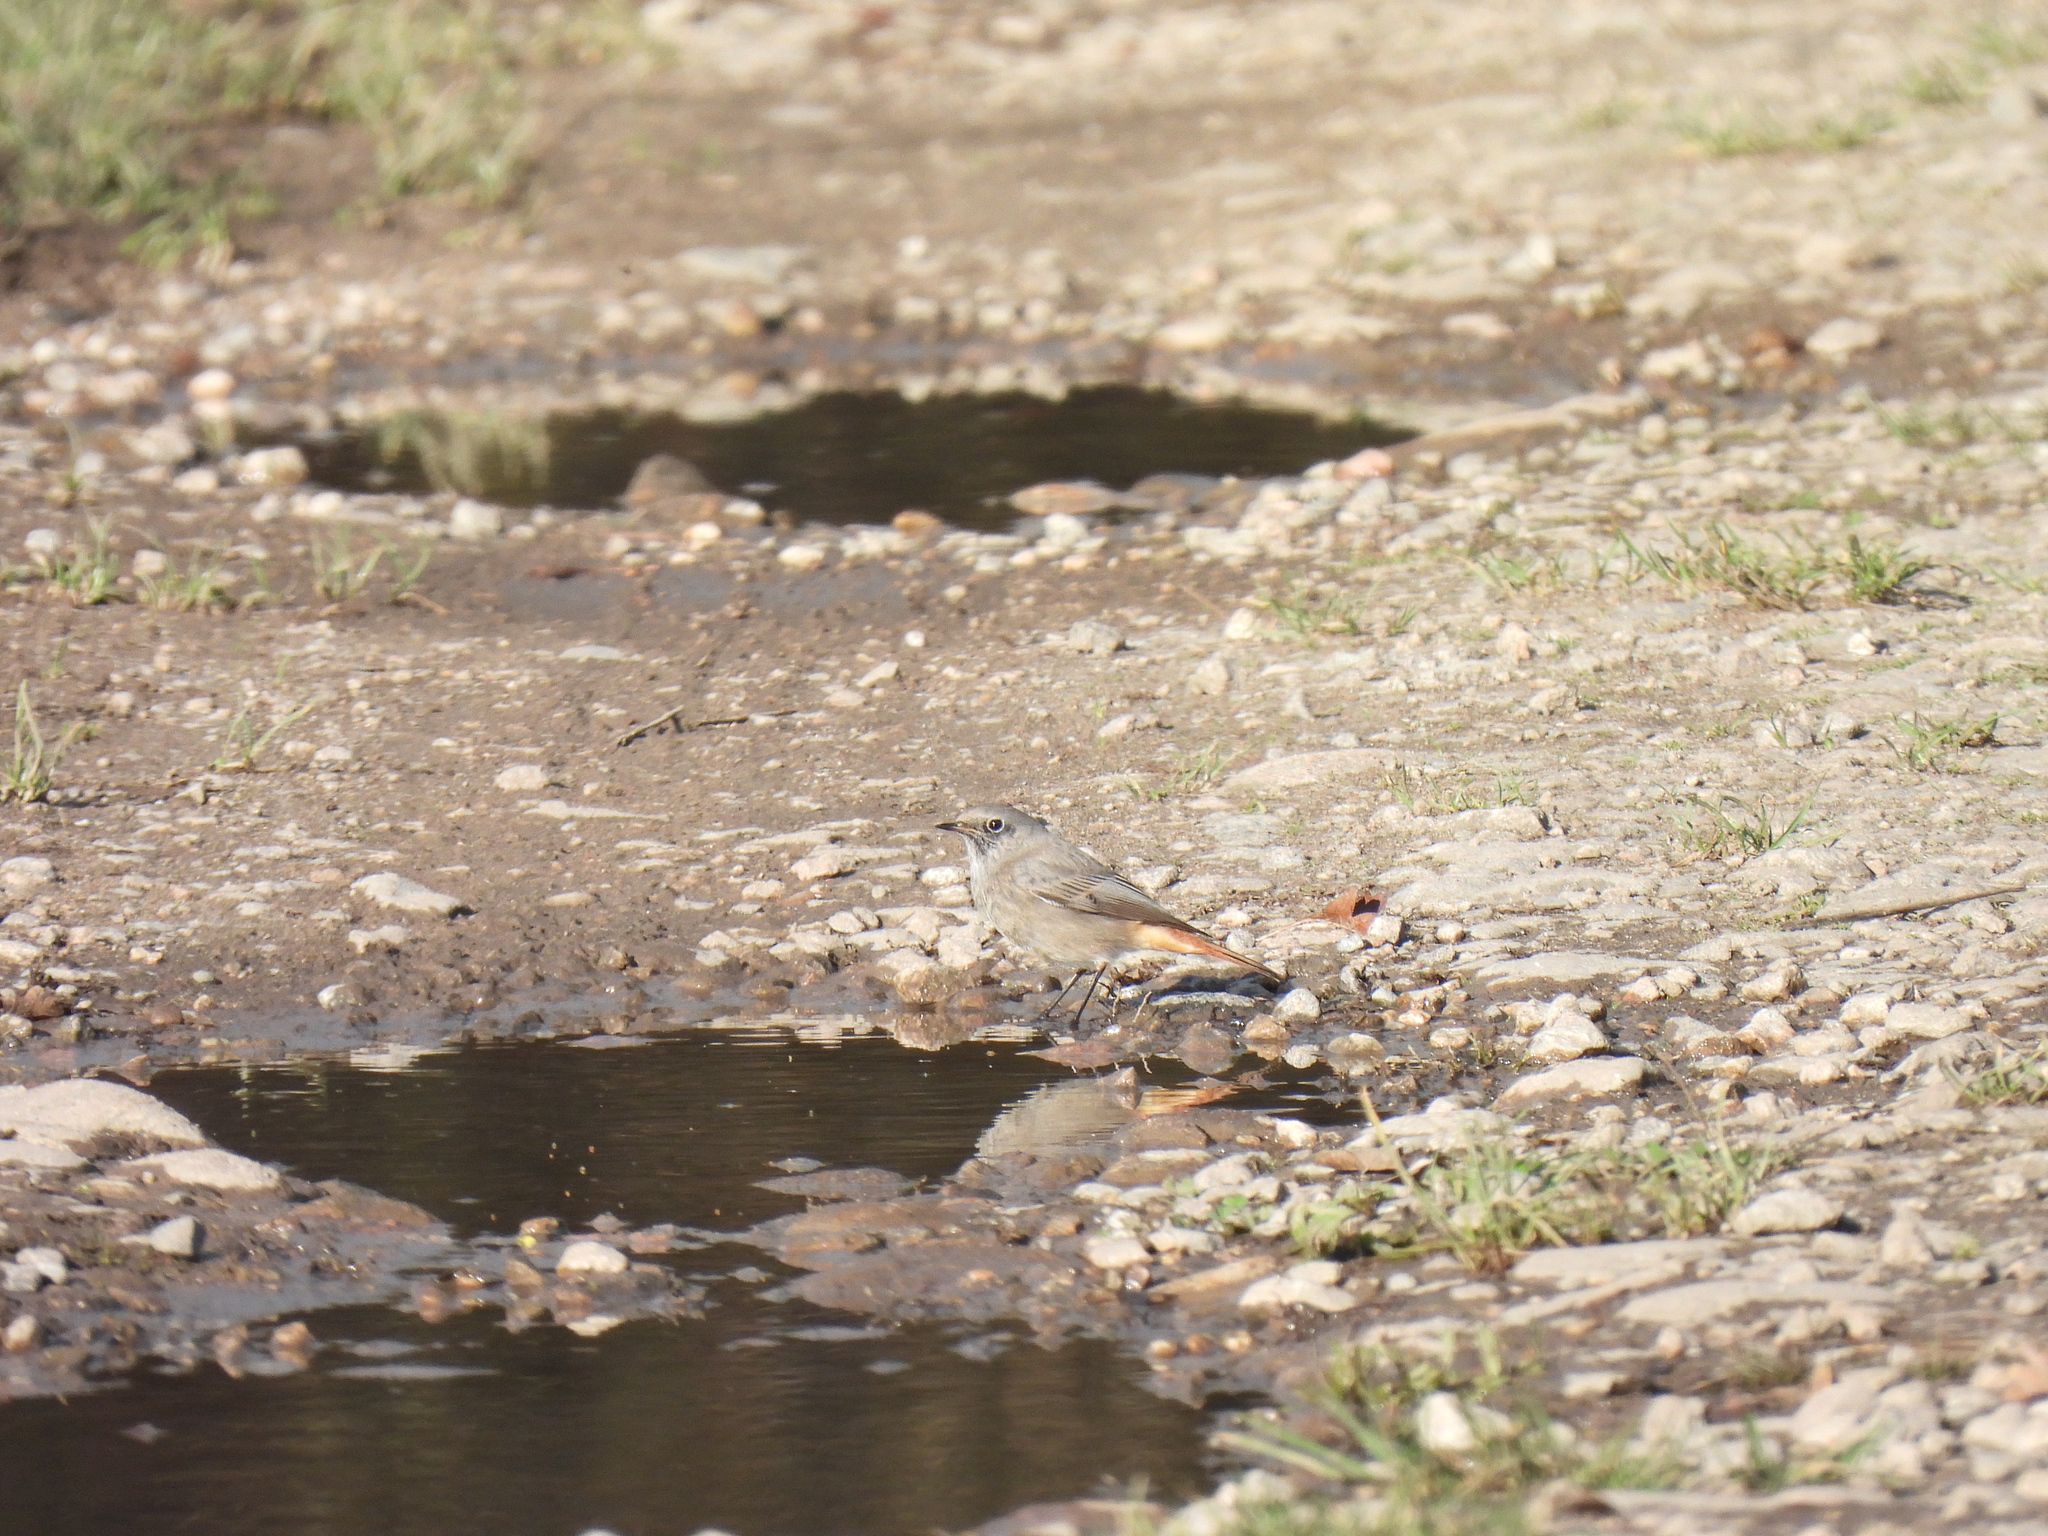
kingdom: Animalia
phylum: Chordata
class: Aves
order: Passeriformes
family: Muscicapidae
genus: Phoenicurus
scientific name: Phoenicurus ochruros
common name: Black redstart
